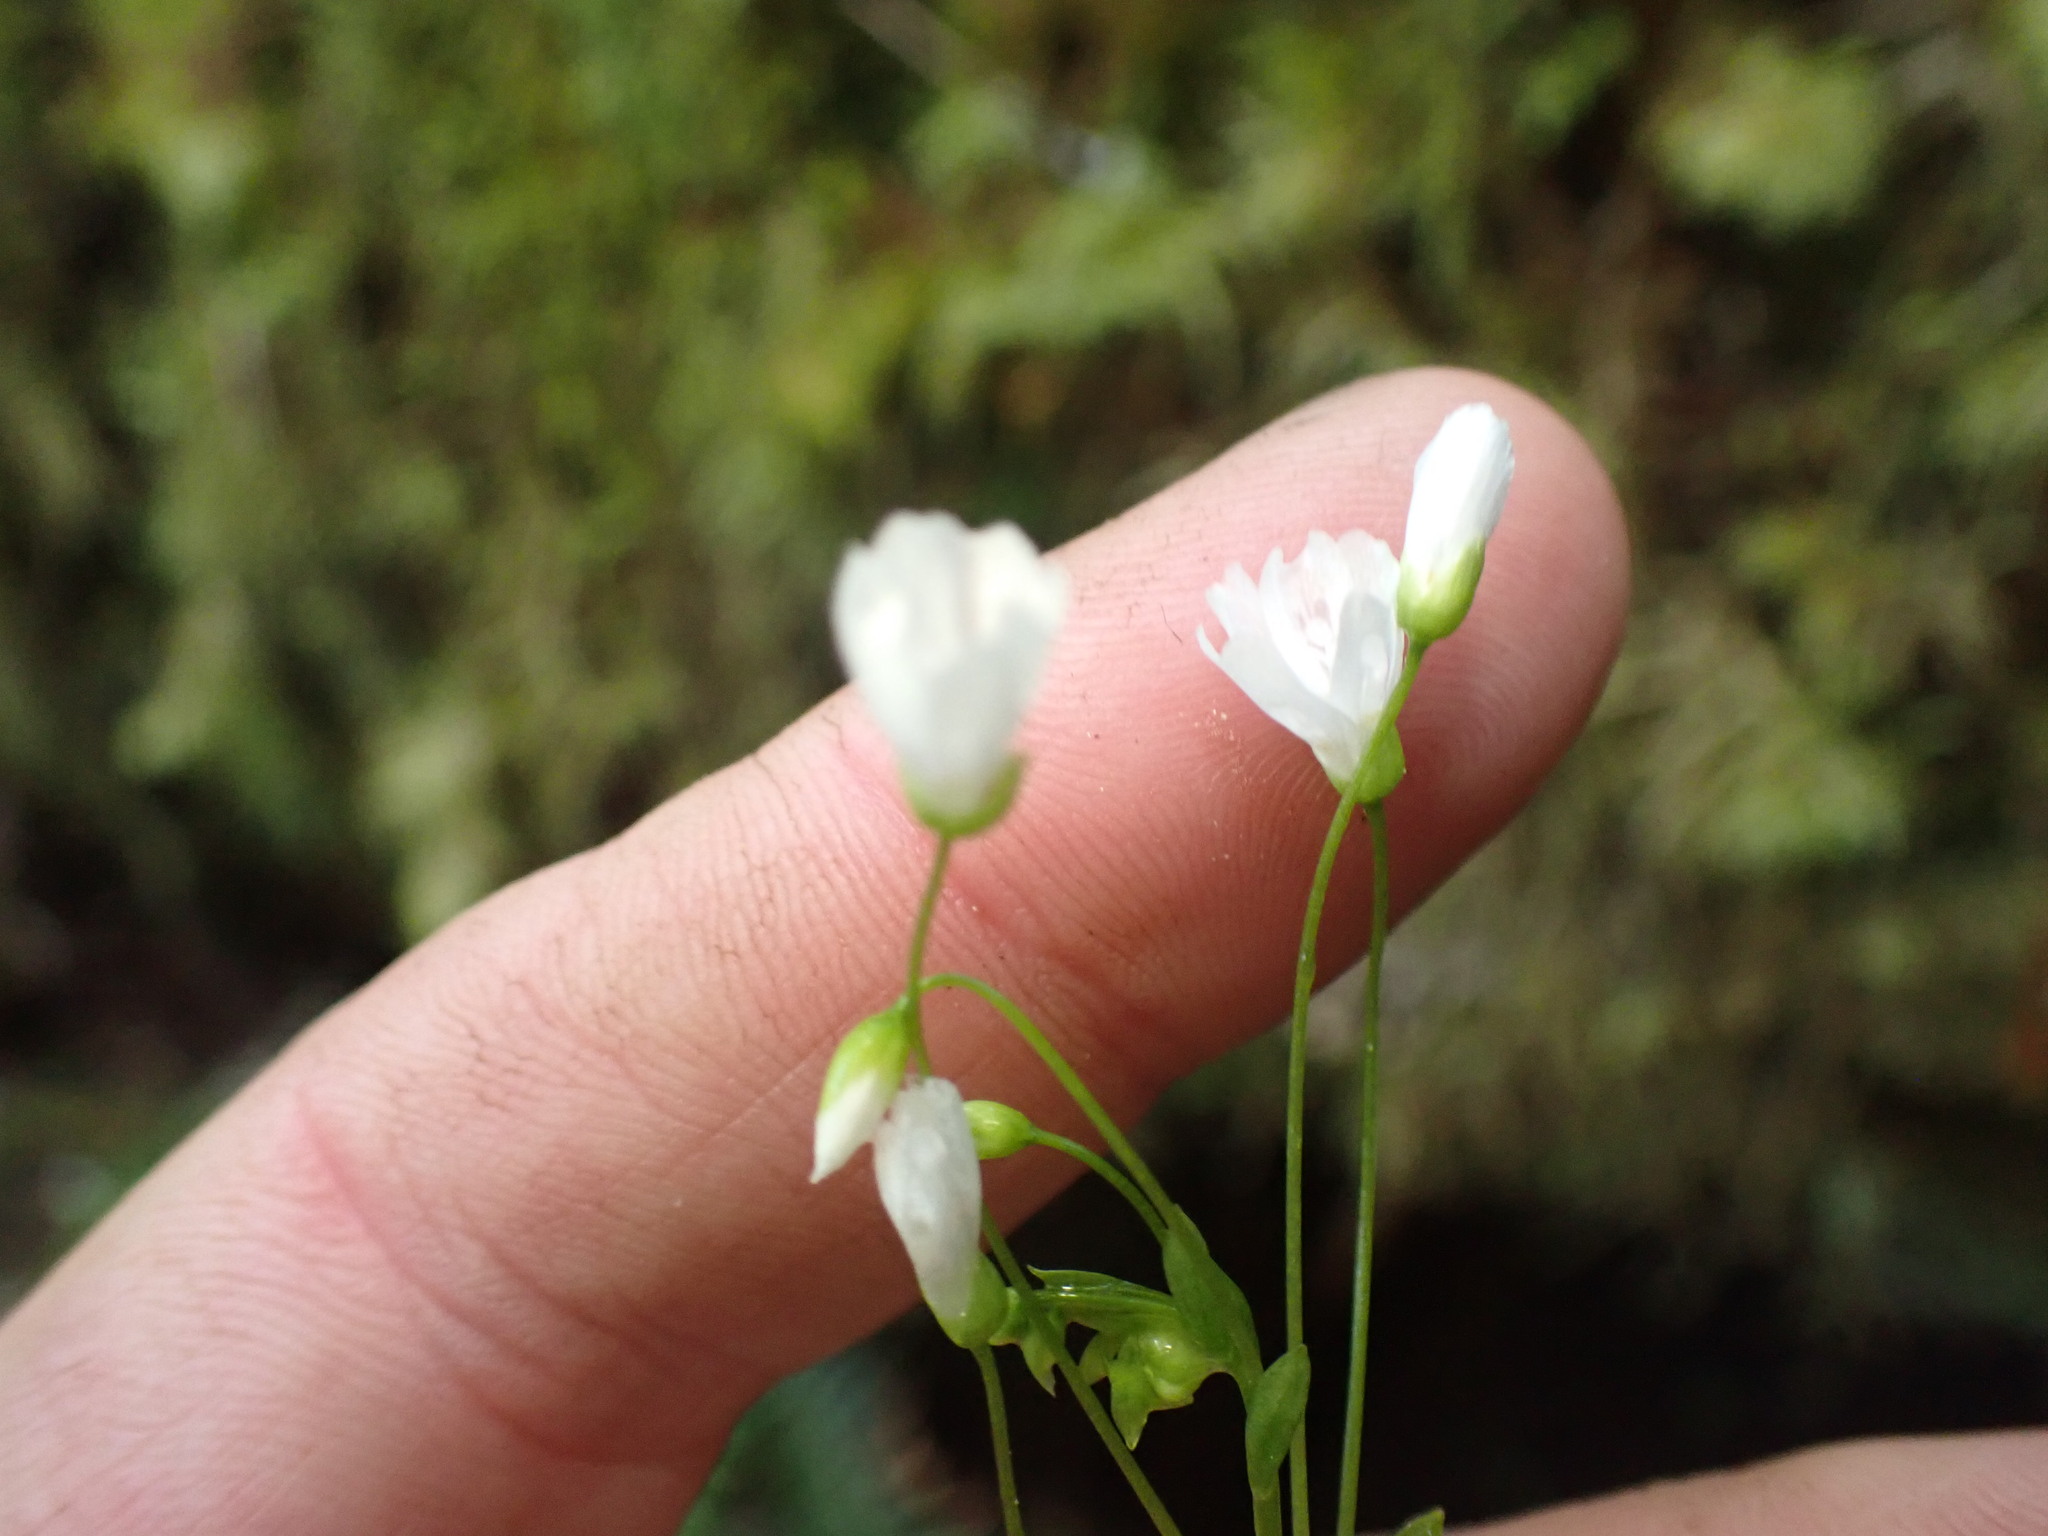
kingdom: Plantae
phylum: Tracheophyta
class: Magnoliopsida
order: Caryophyllales
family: Montiaceae
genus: Claytonia
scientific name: Claytonia sibirica
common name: Pink purslane
